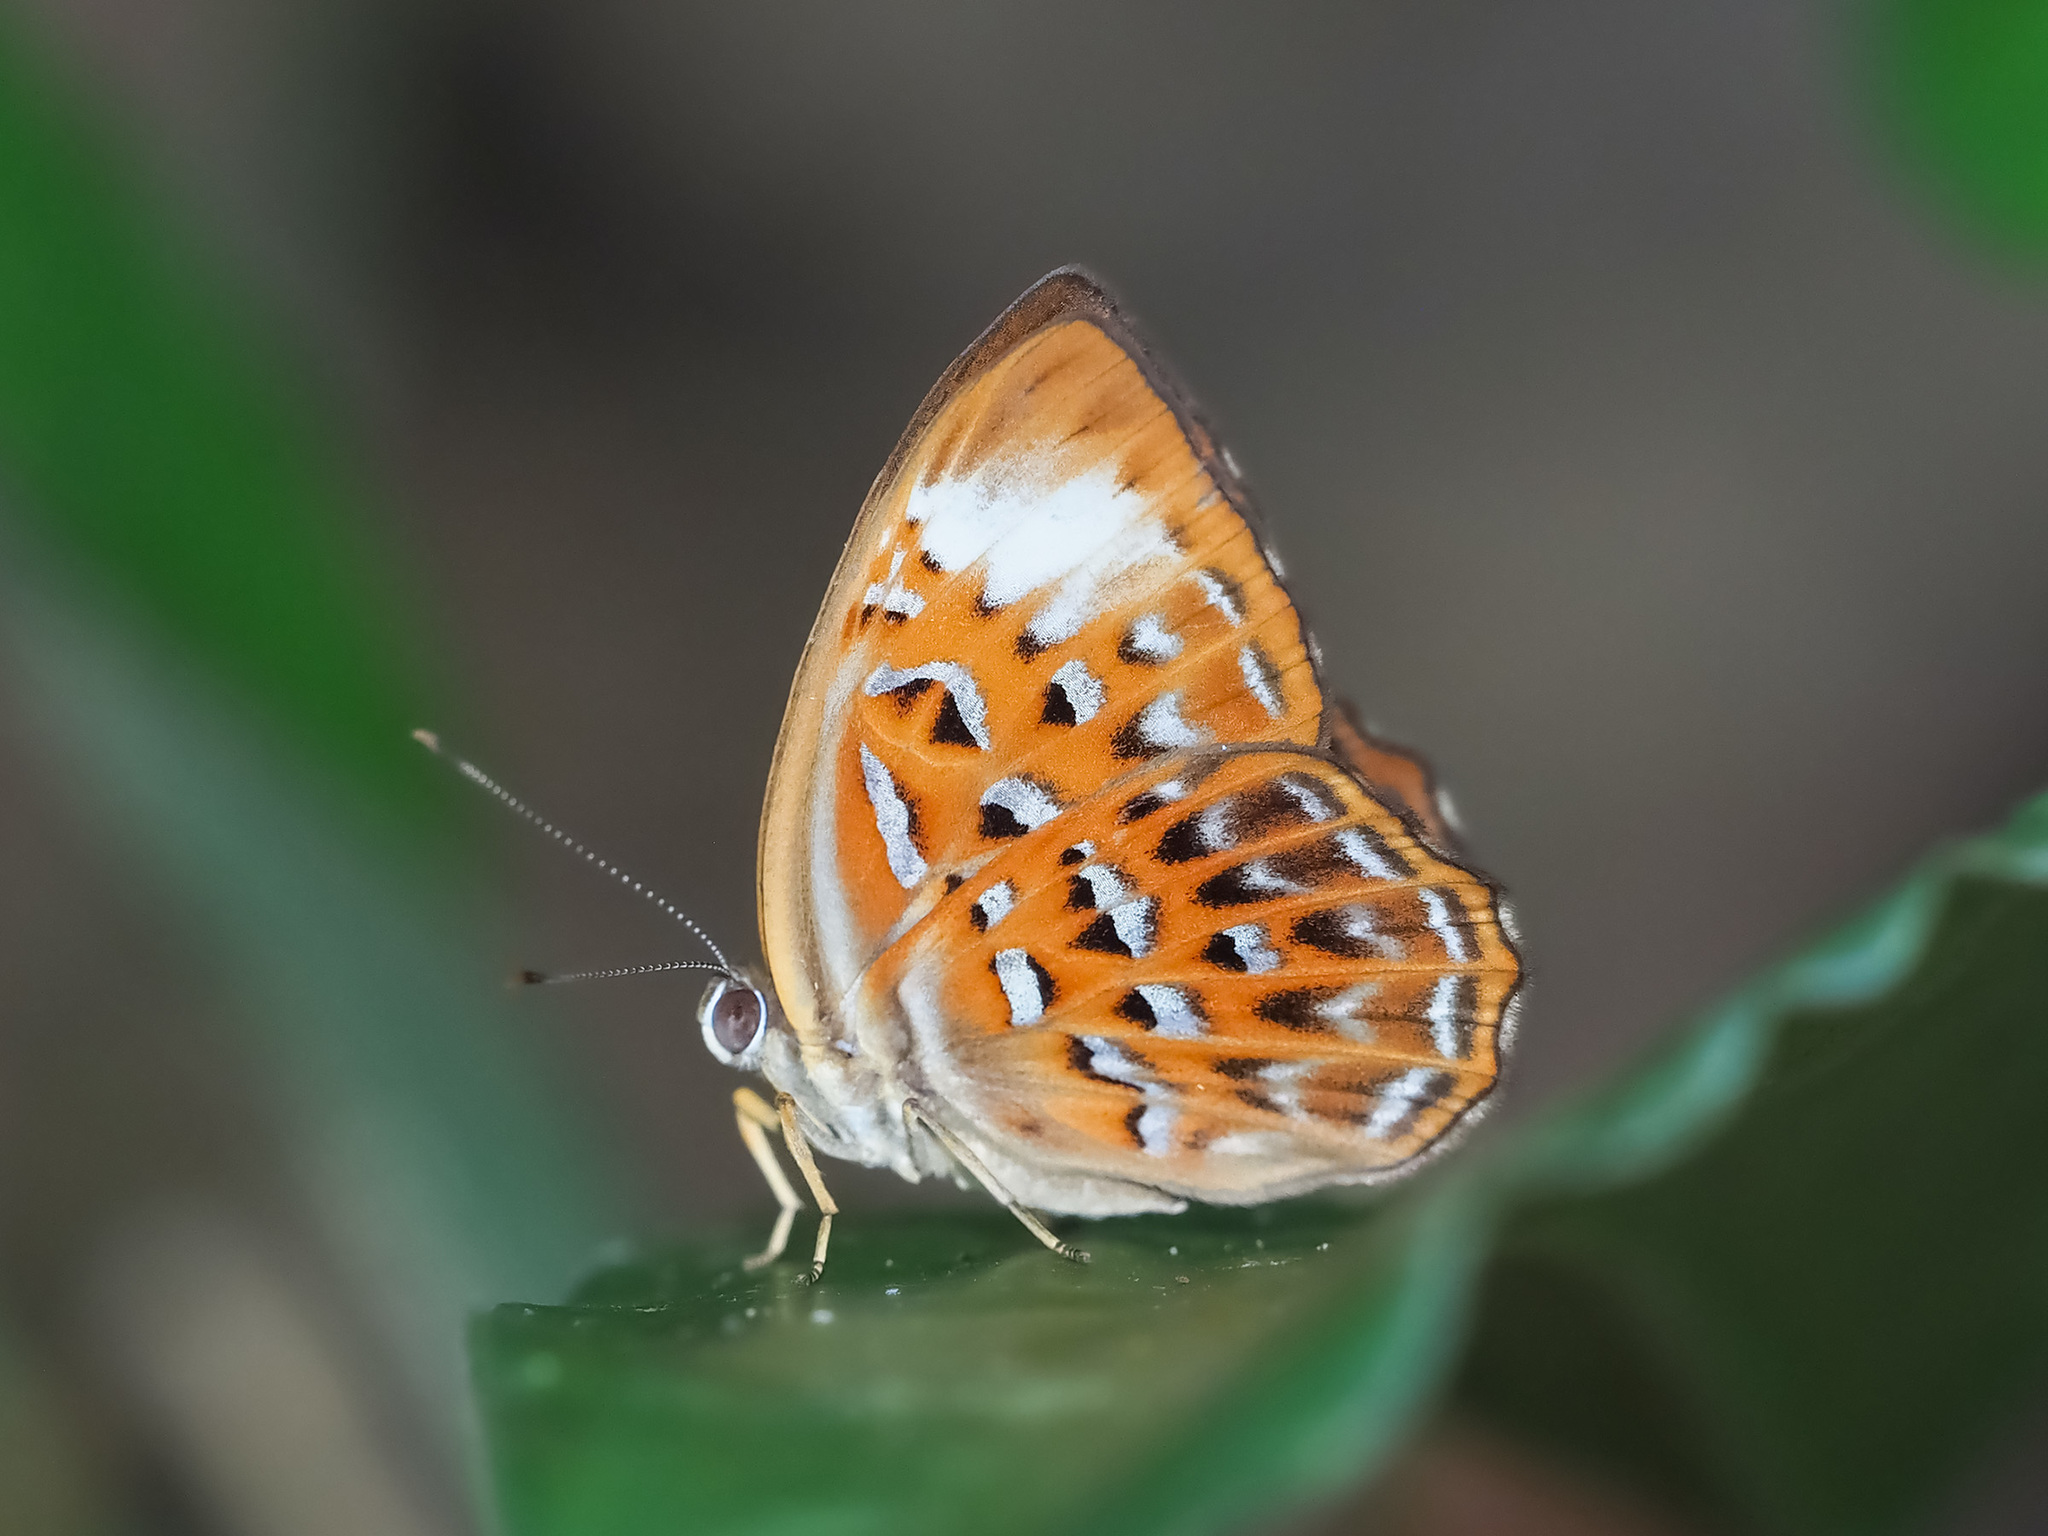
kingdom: Animalia
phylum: Arthropoda
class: Insecta
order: Lepidoptera
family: Erebidae
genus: Dysschema
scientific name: Dysschema
